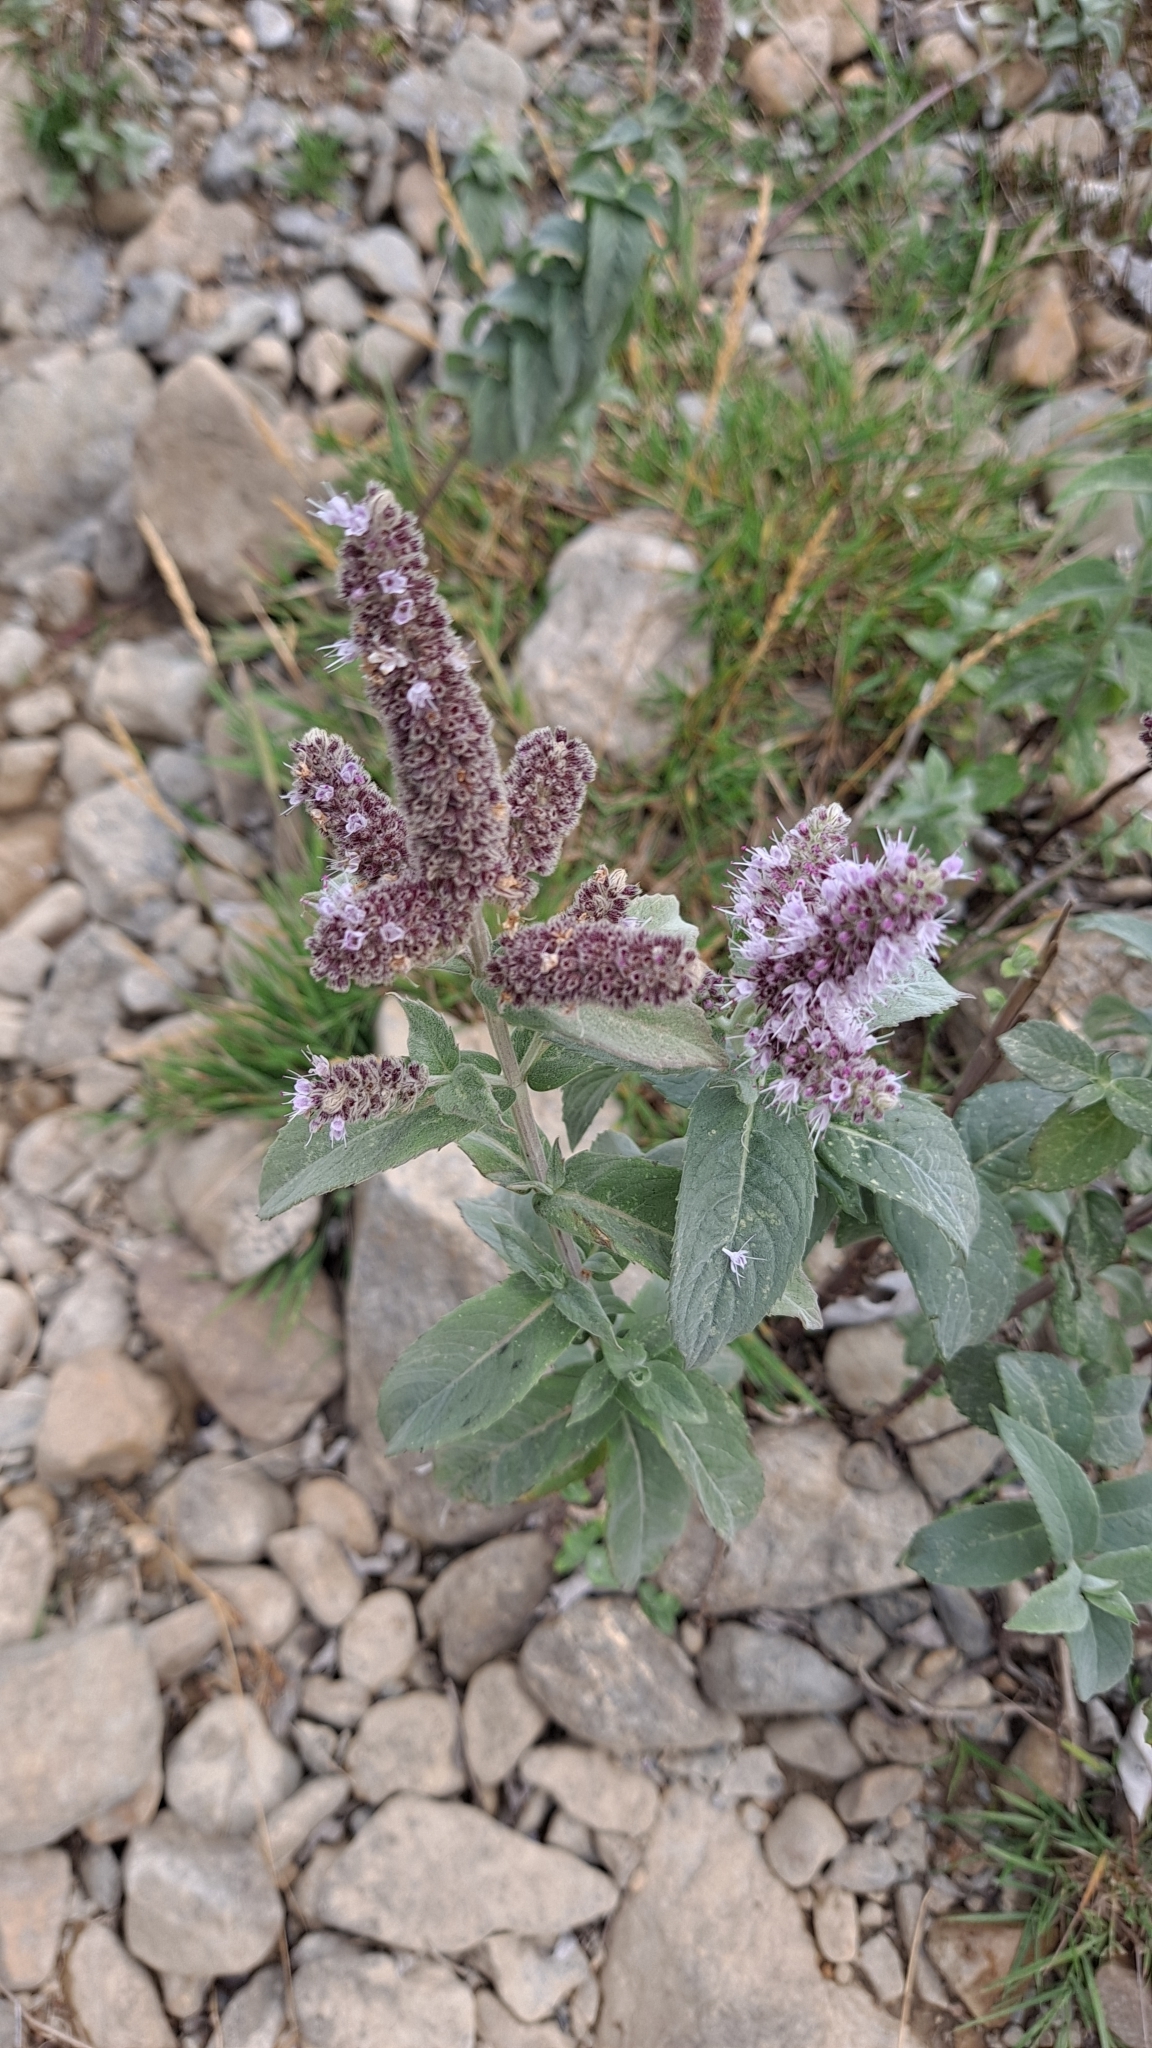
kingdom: Plantae
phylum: Tracheophyta
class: Magnoliopsida
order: Lamiales
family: Lamiaceae
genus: Mentha
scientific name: Mentha longifolia
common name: Horse mint
